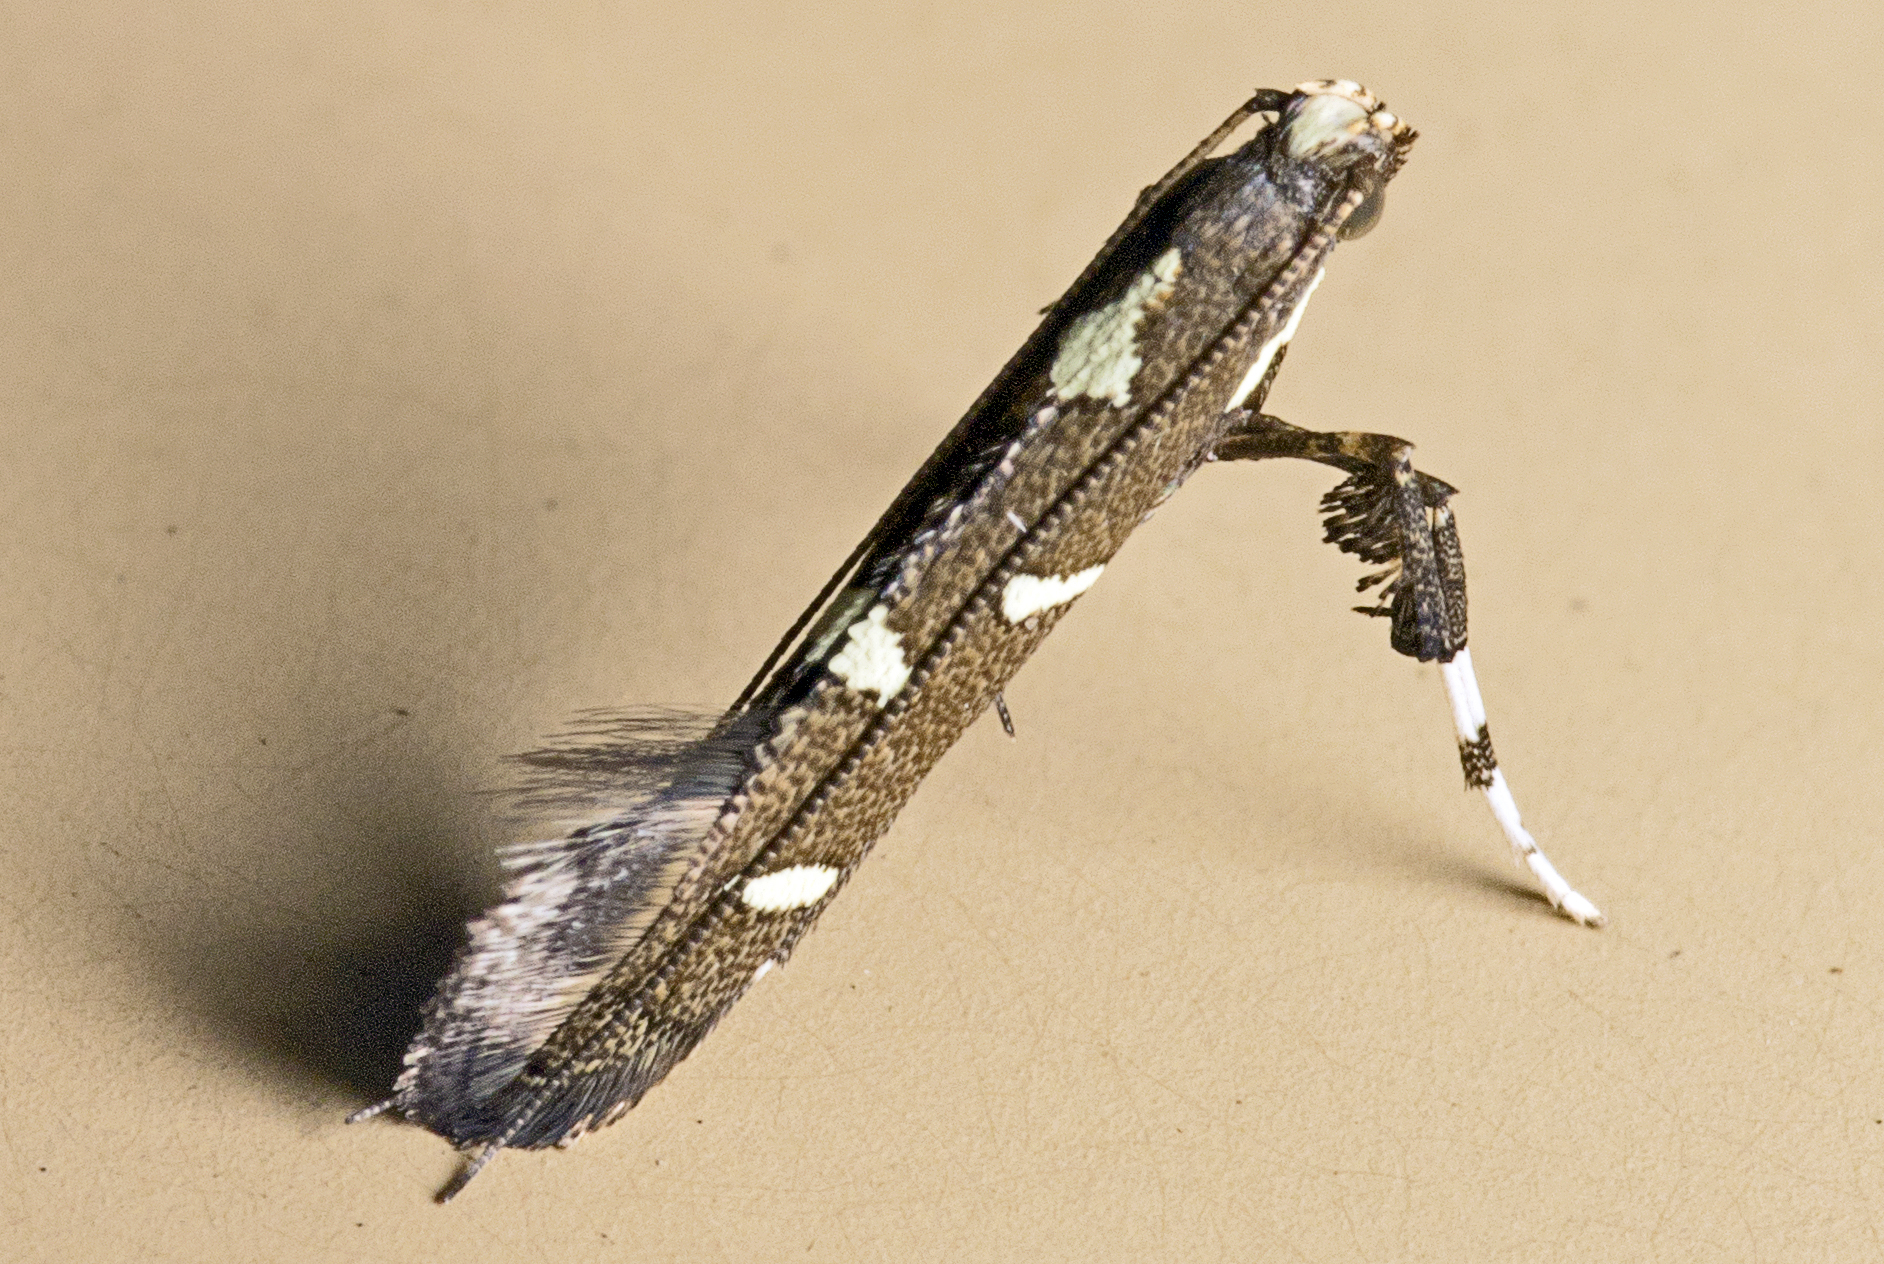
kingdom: Animalia
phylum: Arthropoda
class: Insecta
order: Lepidoptera
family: Gracillariidae
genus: Caloptilia
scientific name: Caloptilia adelosema
